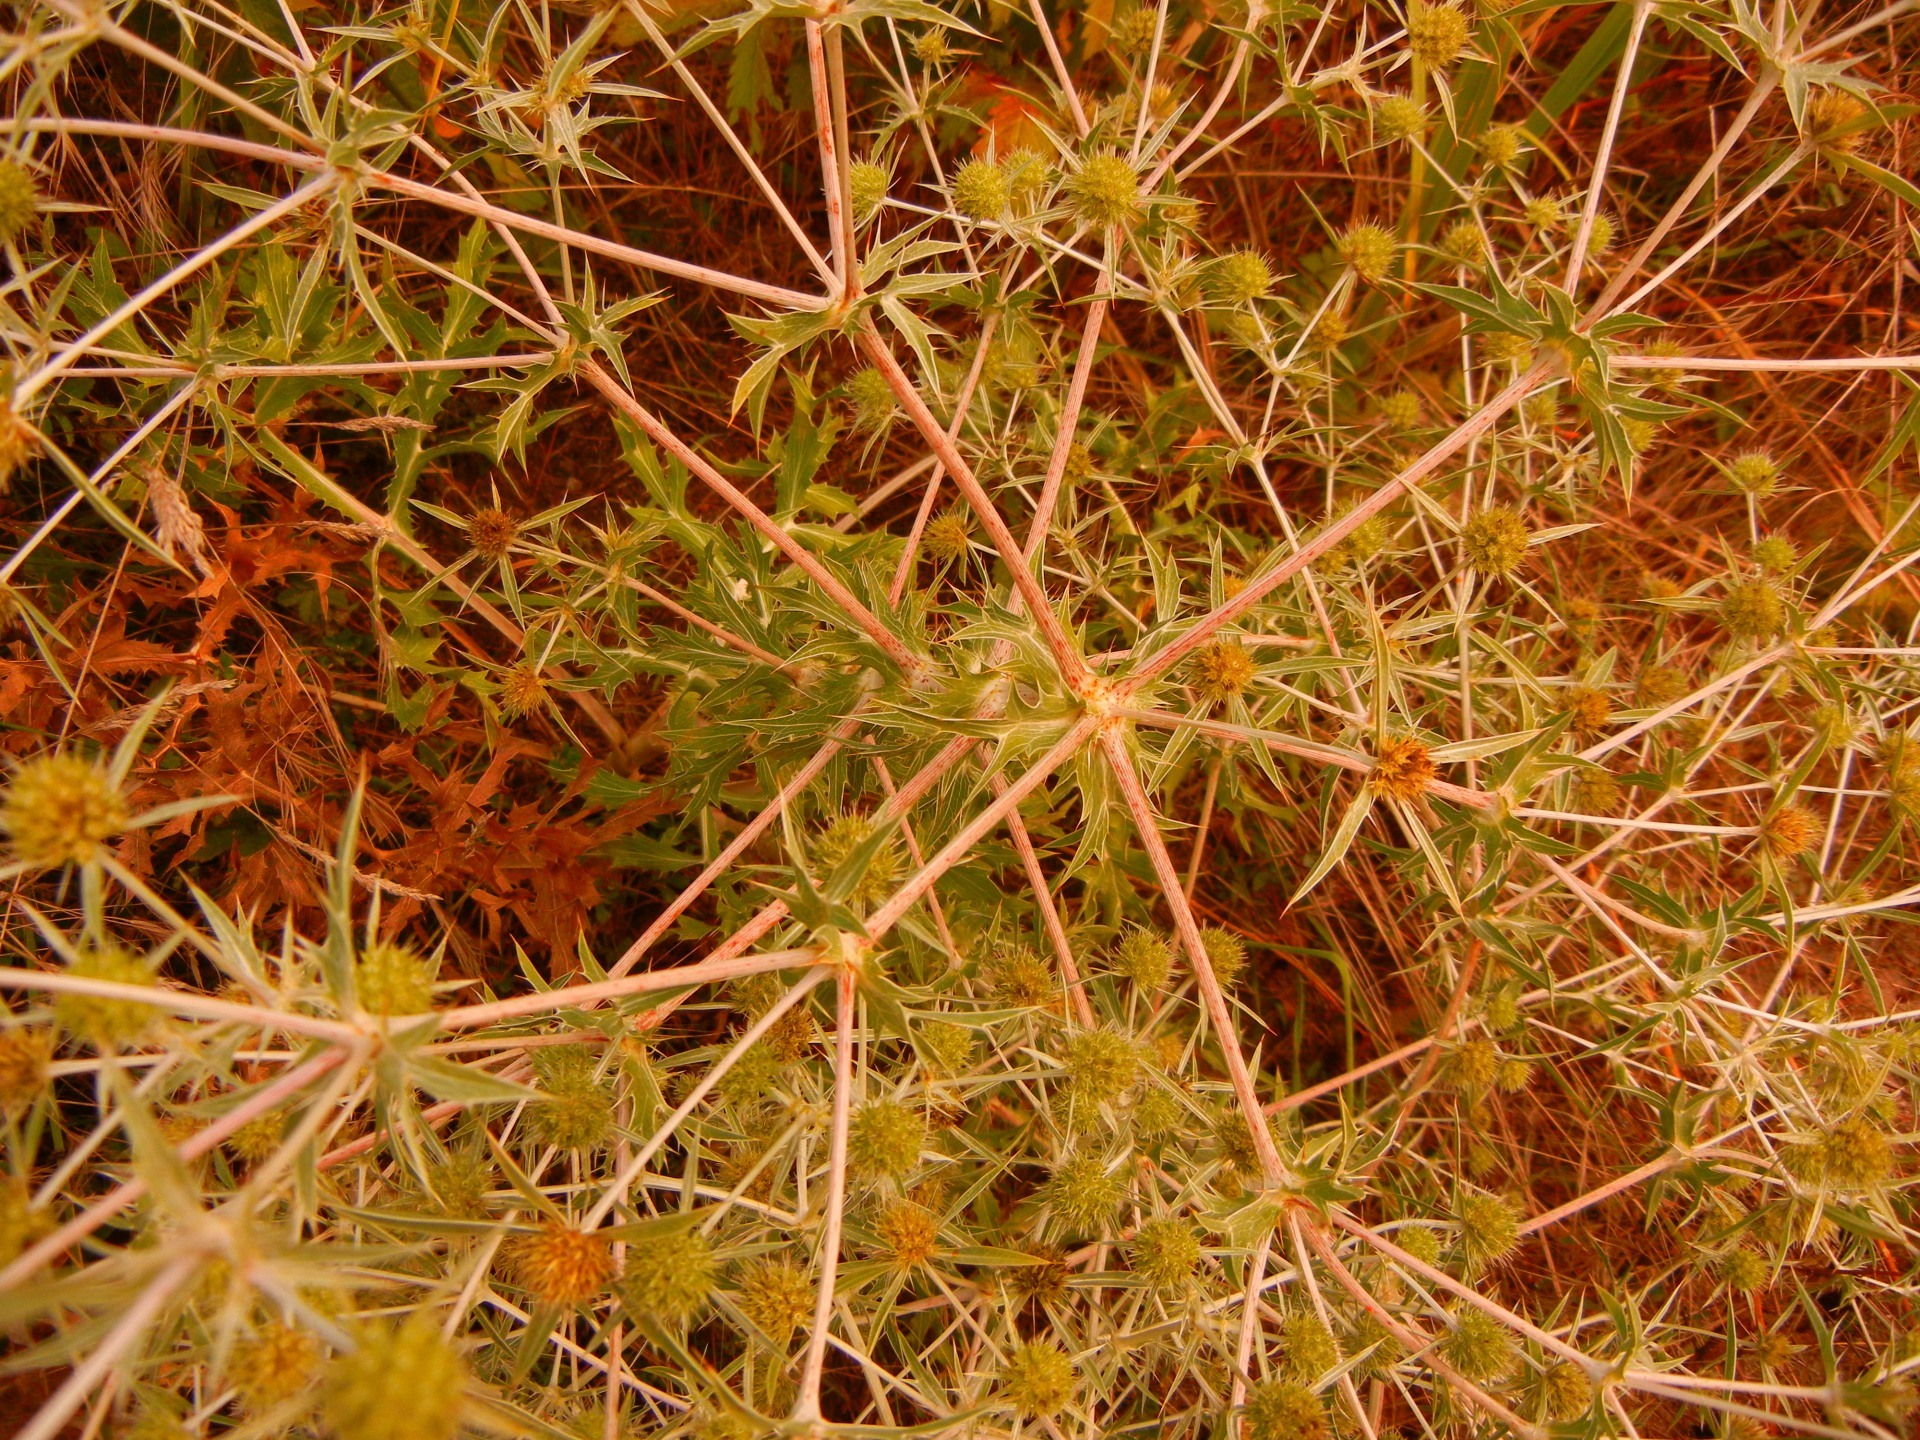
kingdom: Plantae
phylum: Tracheophyta
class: Magnoliopsida
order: Apiales
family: Apiaceae
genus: Eryngium
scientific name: Eryngium campestre
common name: Field eryngo
